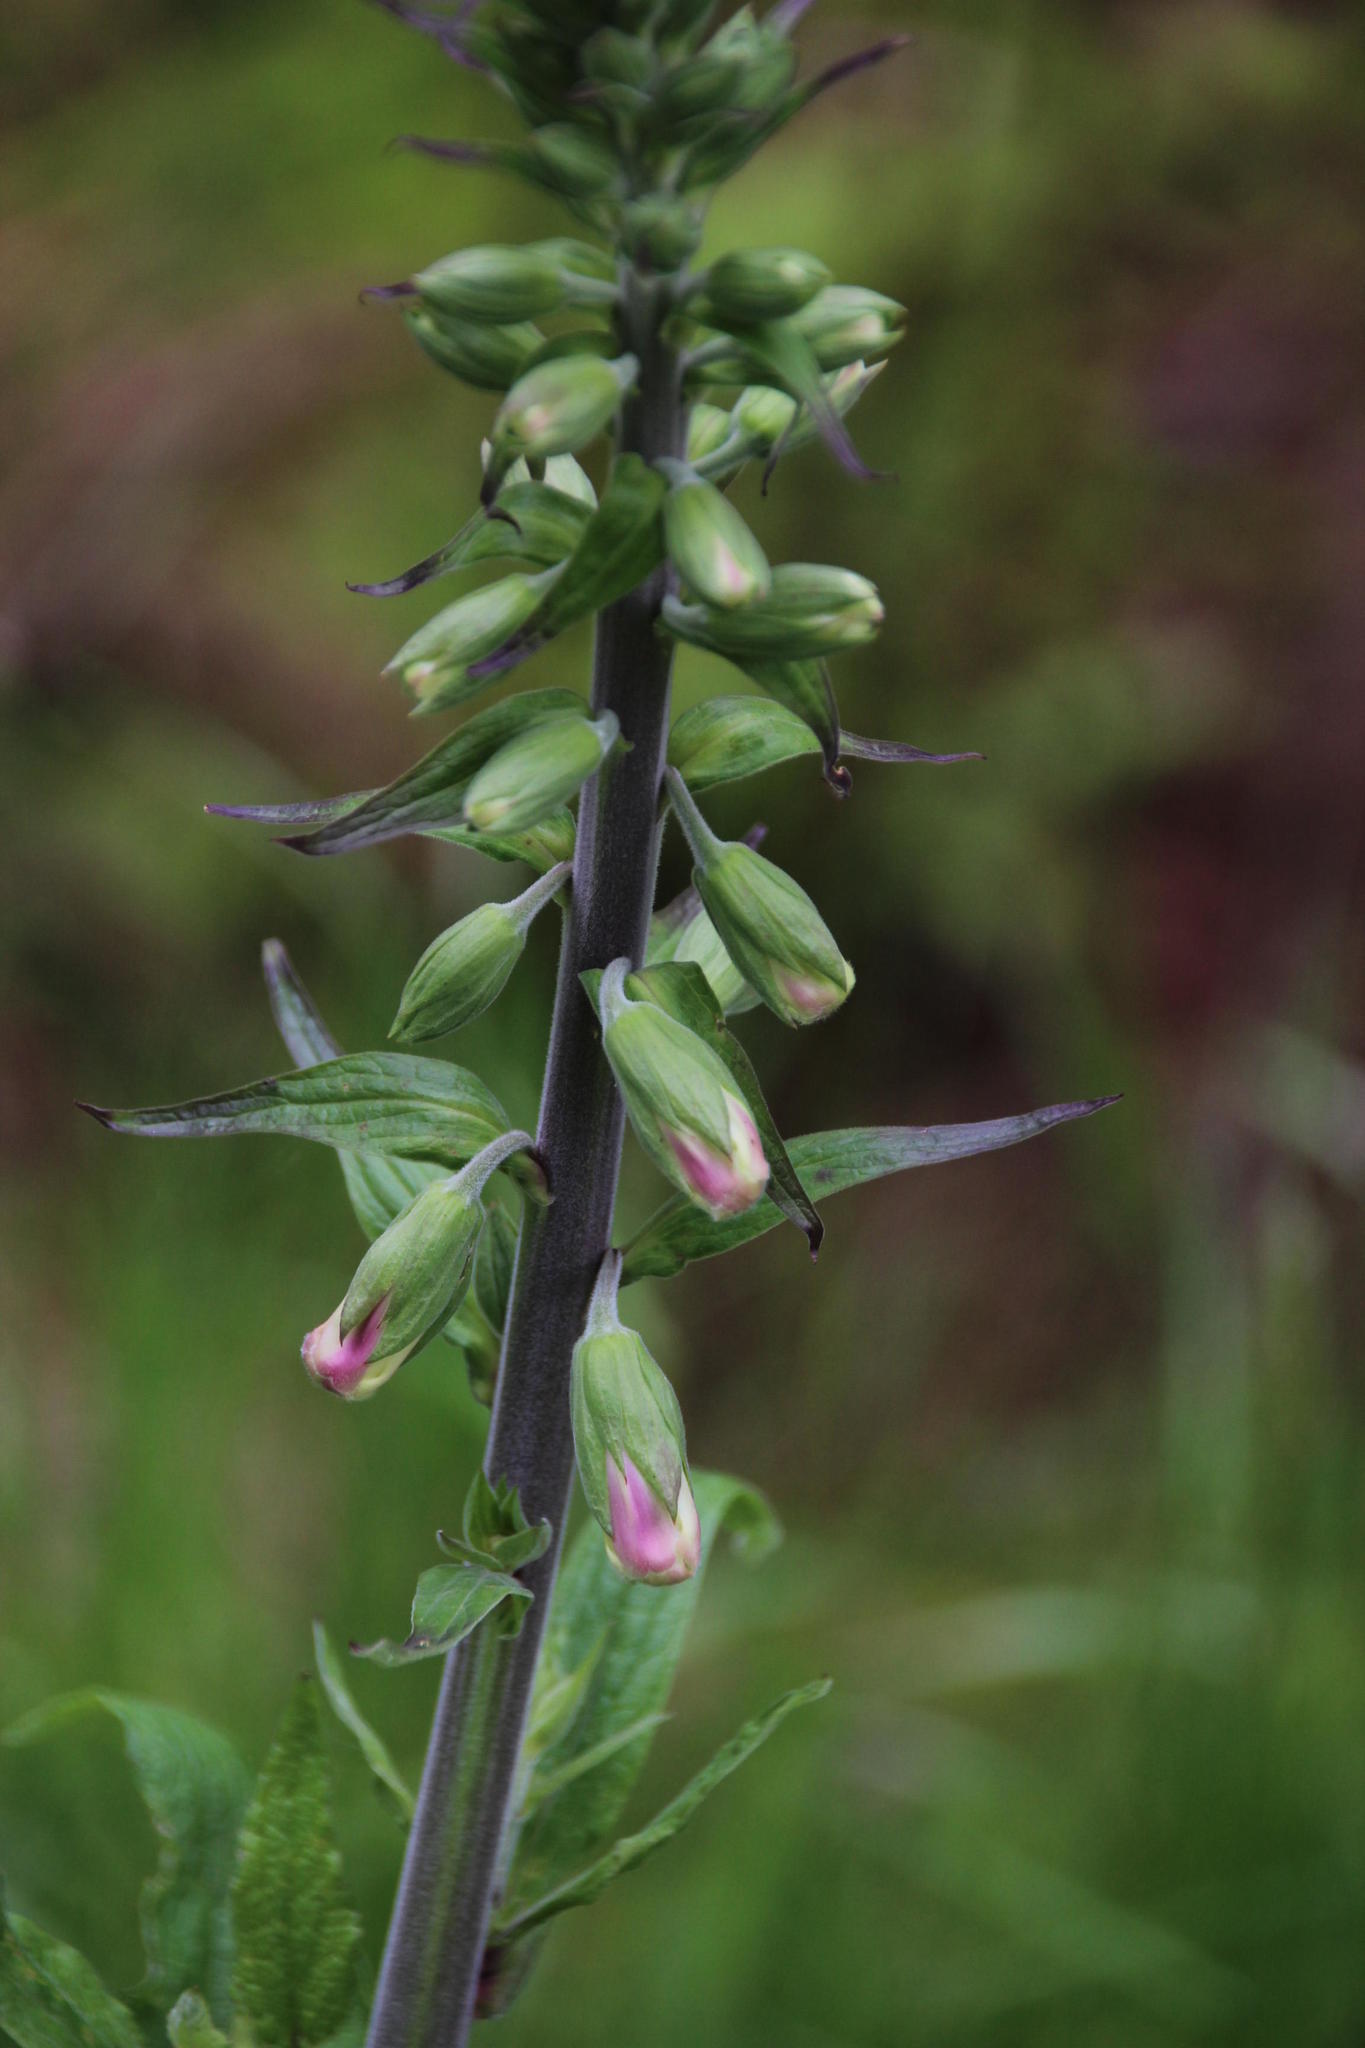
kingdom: Plantae
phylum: Tracheophyta
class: Magnoliopsida
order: Lamiales
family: Plantaginaceae
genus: Digitalis
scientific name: Digitalis purpurea
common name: Foxglove
